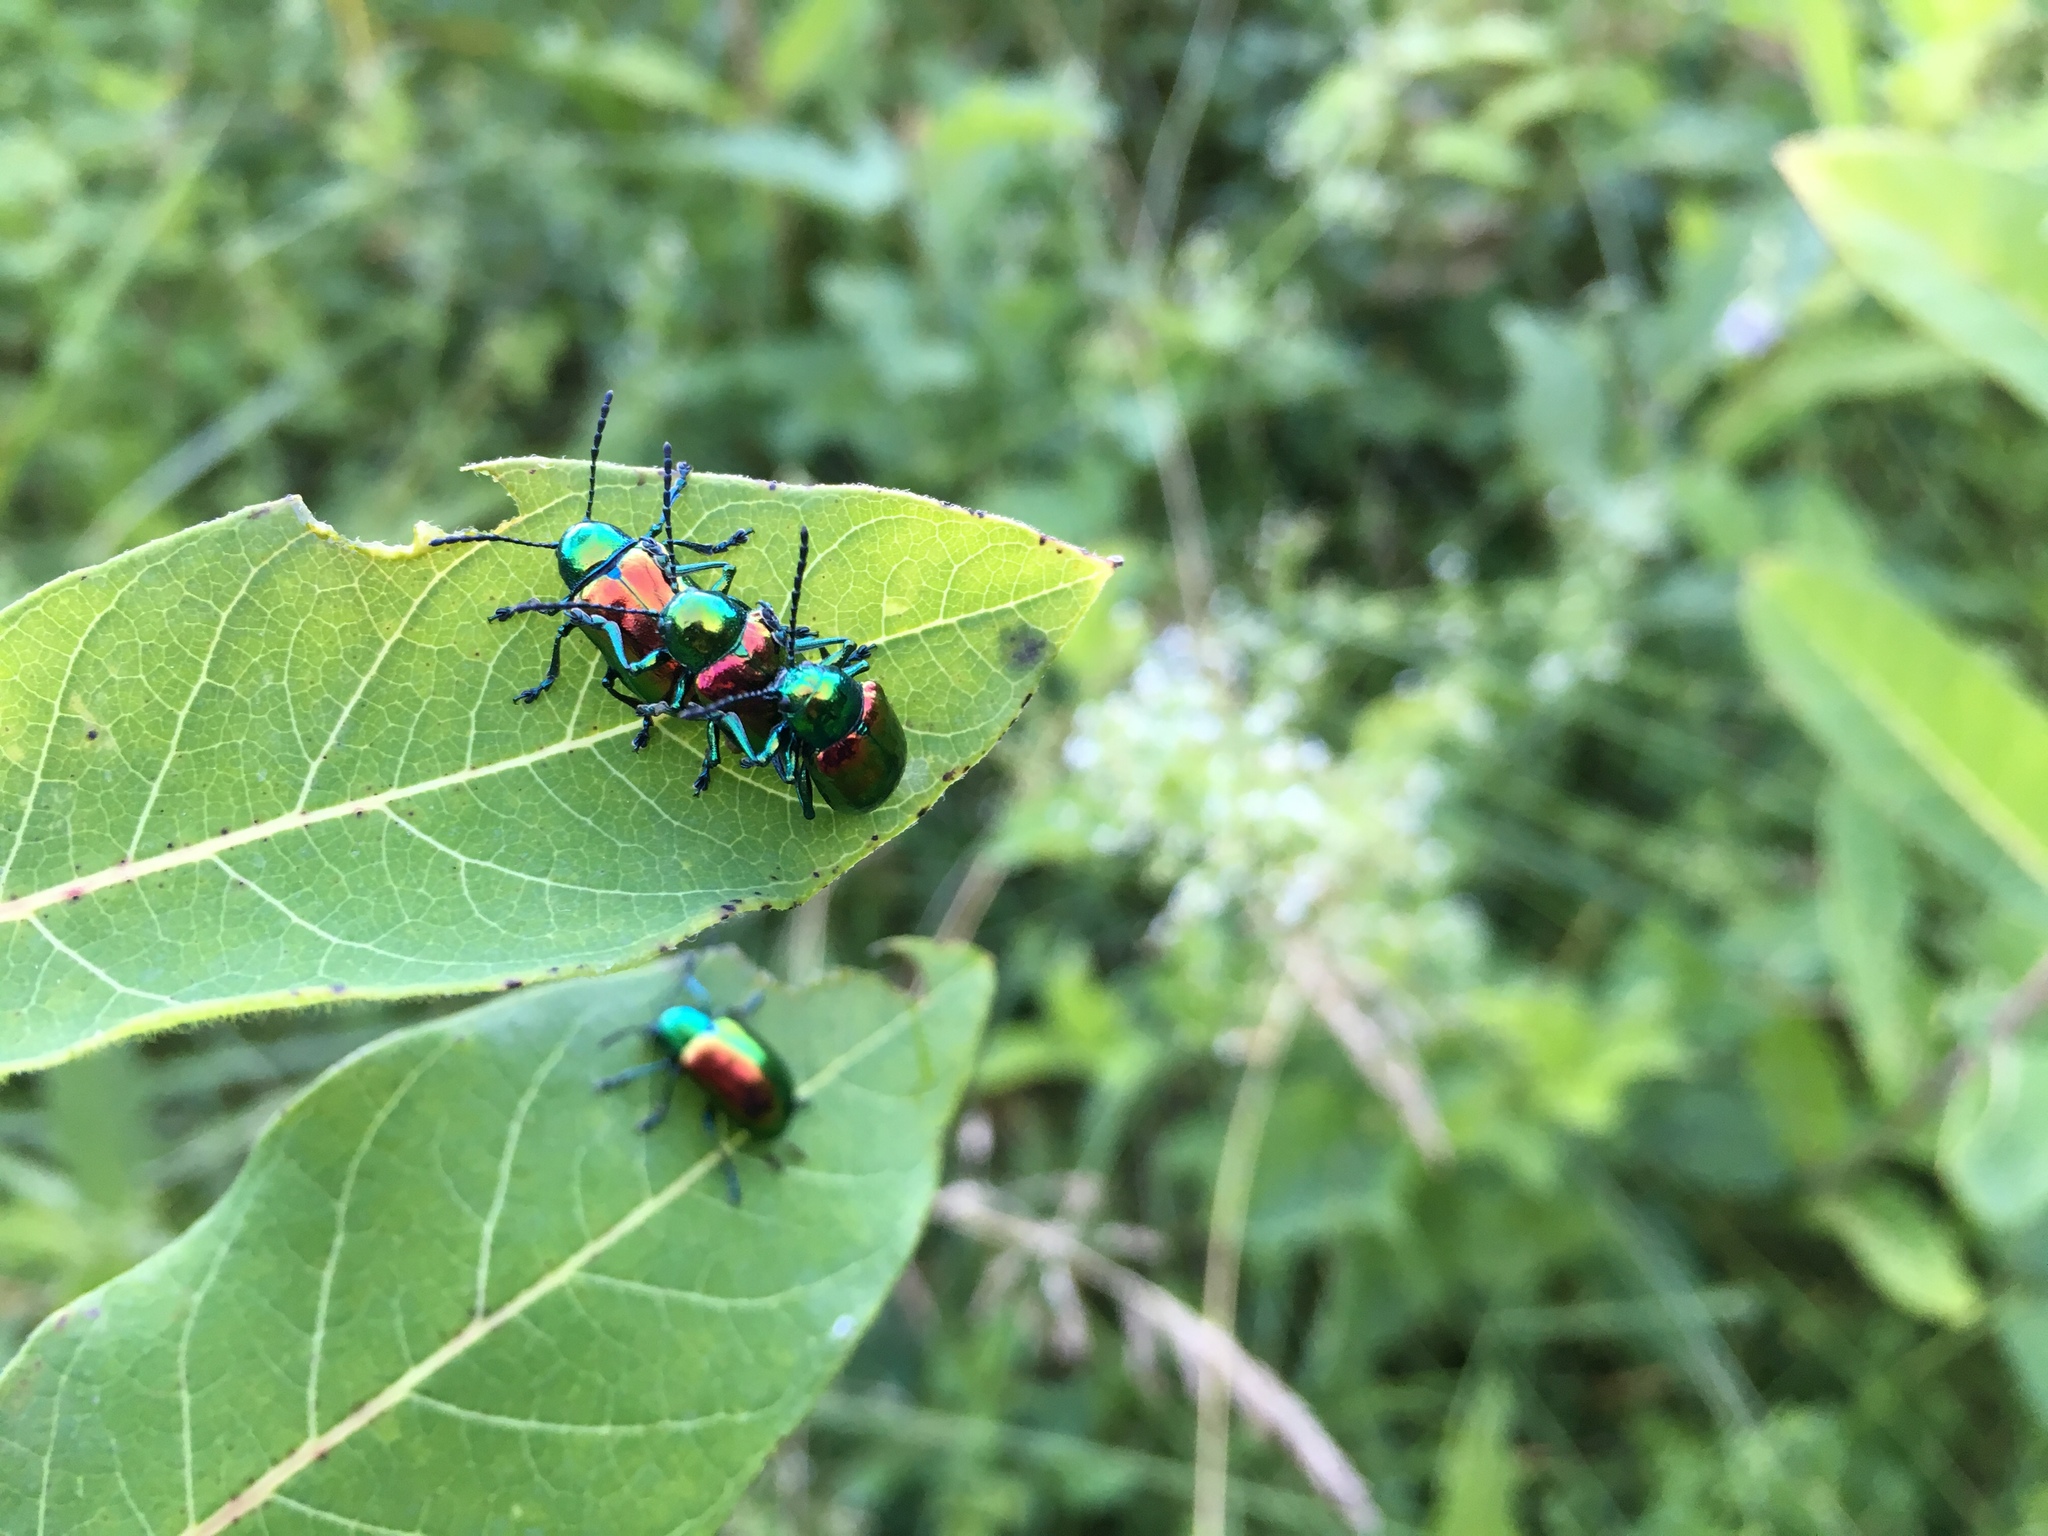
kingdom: Animalia
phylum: Arthropoda
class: Insecta
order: Coleoptera
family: Chrysomelidae
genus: Chrysochus
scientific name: Chrysochus auratus
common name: Dogbane leaf beetle
